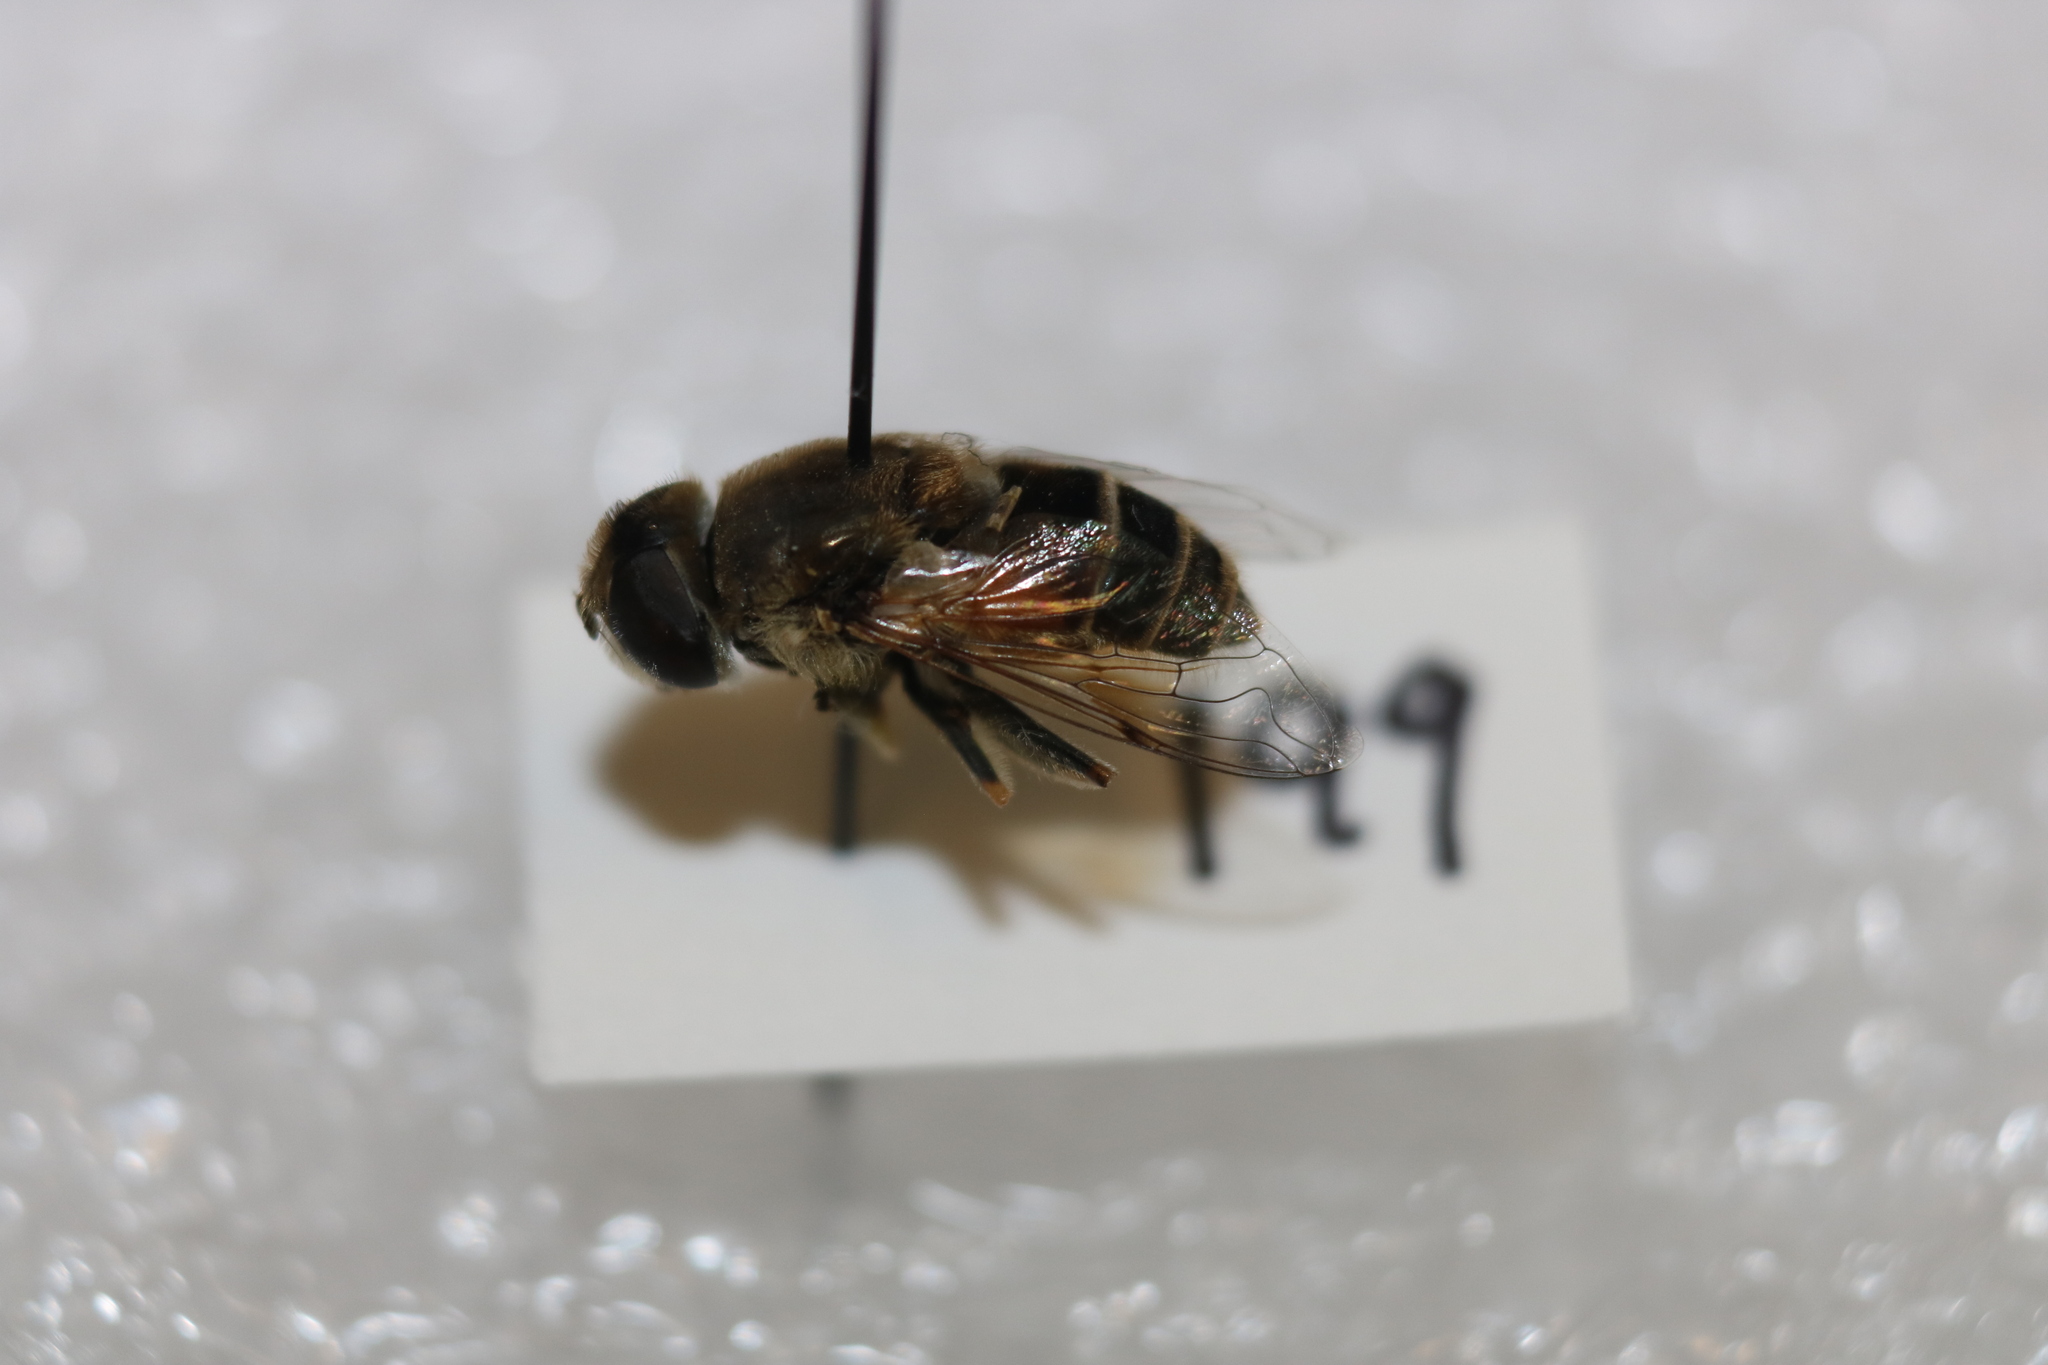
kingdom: Animalia
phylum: Arthropoda
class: Insecta
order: Diptera
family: Syrphidae
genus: Eristalis
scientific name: Eristalis arbustorum
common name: Hover fly
